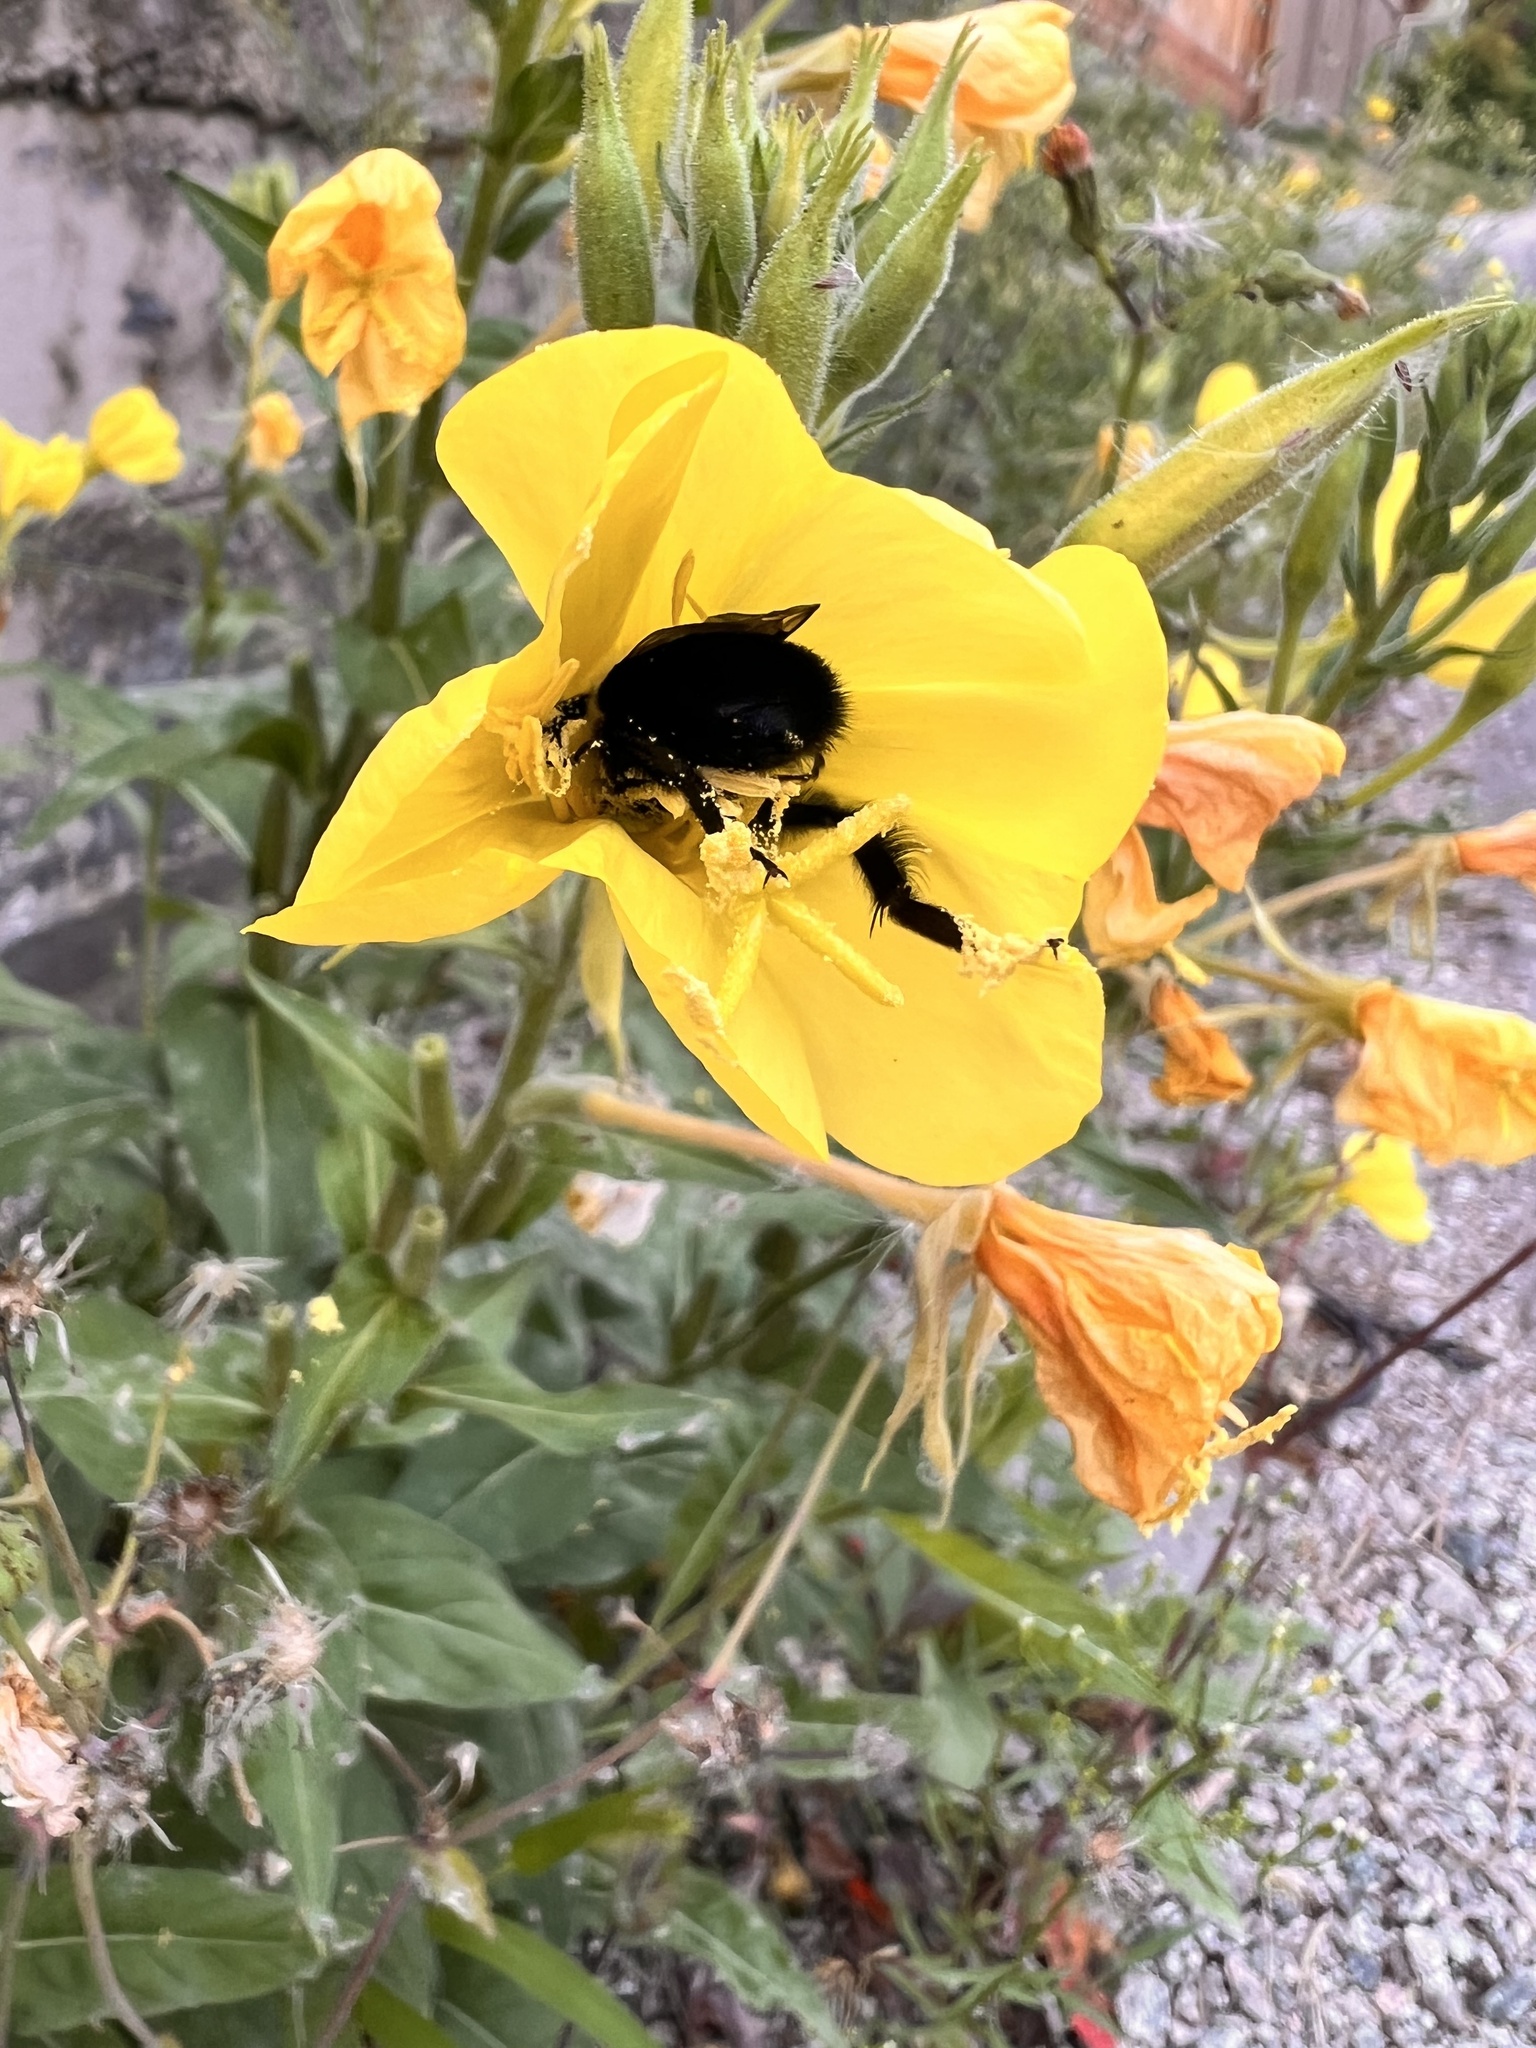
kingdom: Animalia
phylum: Arthropoda
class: Insecta
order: Hymenoptera
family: Apidae
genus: Bombus
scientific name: Bombus impatiens
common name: Common eastern bumble bee
